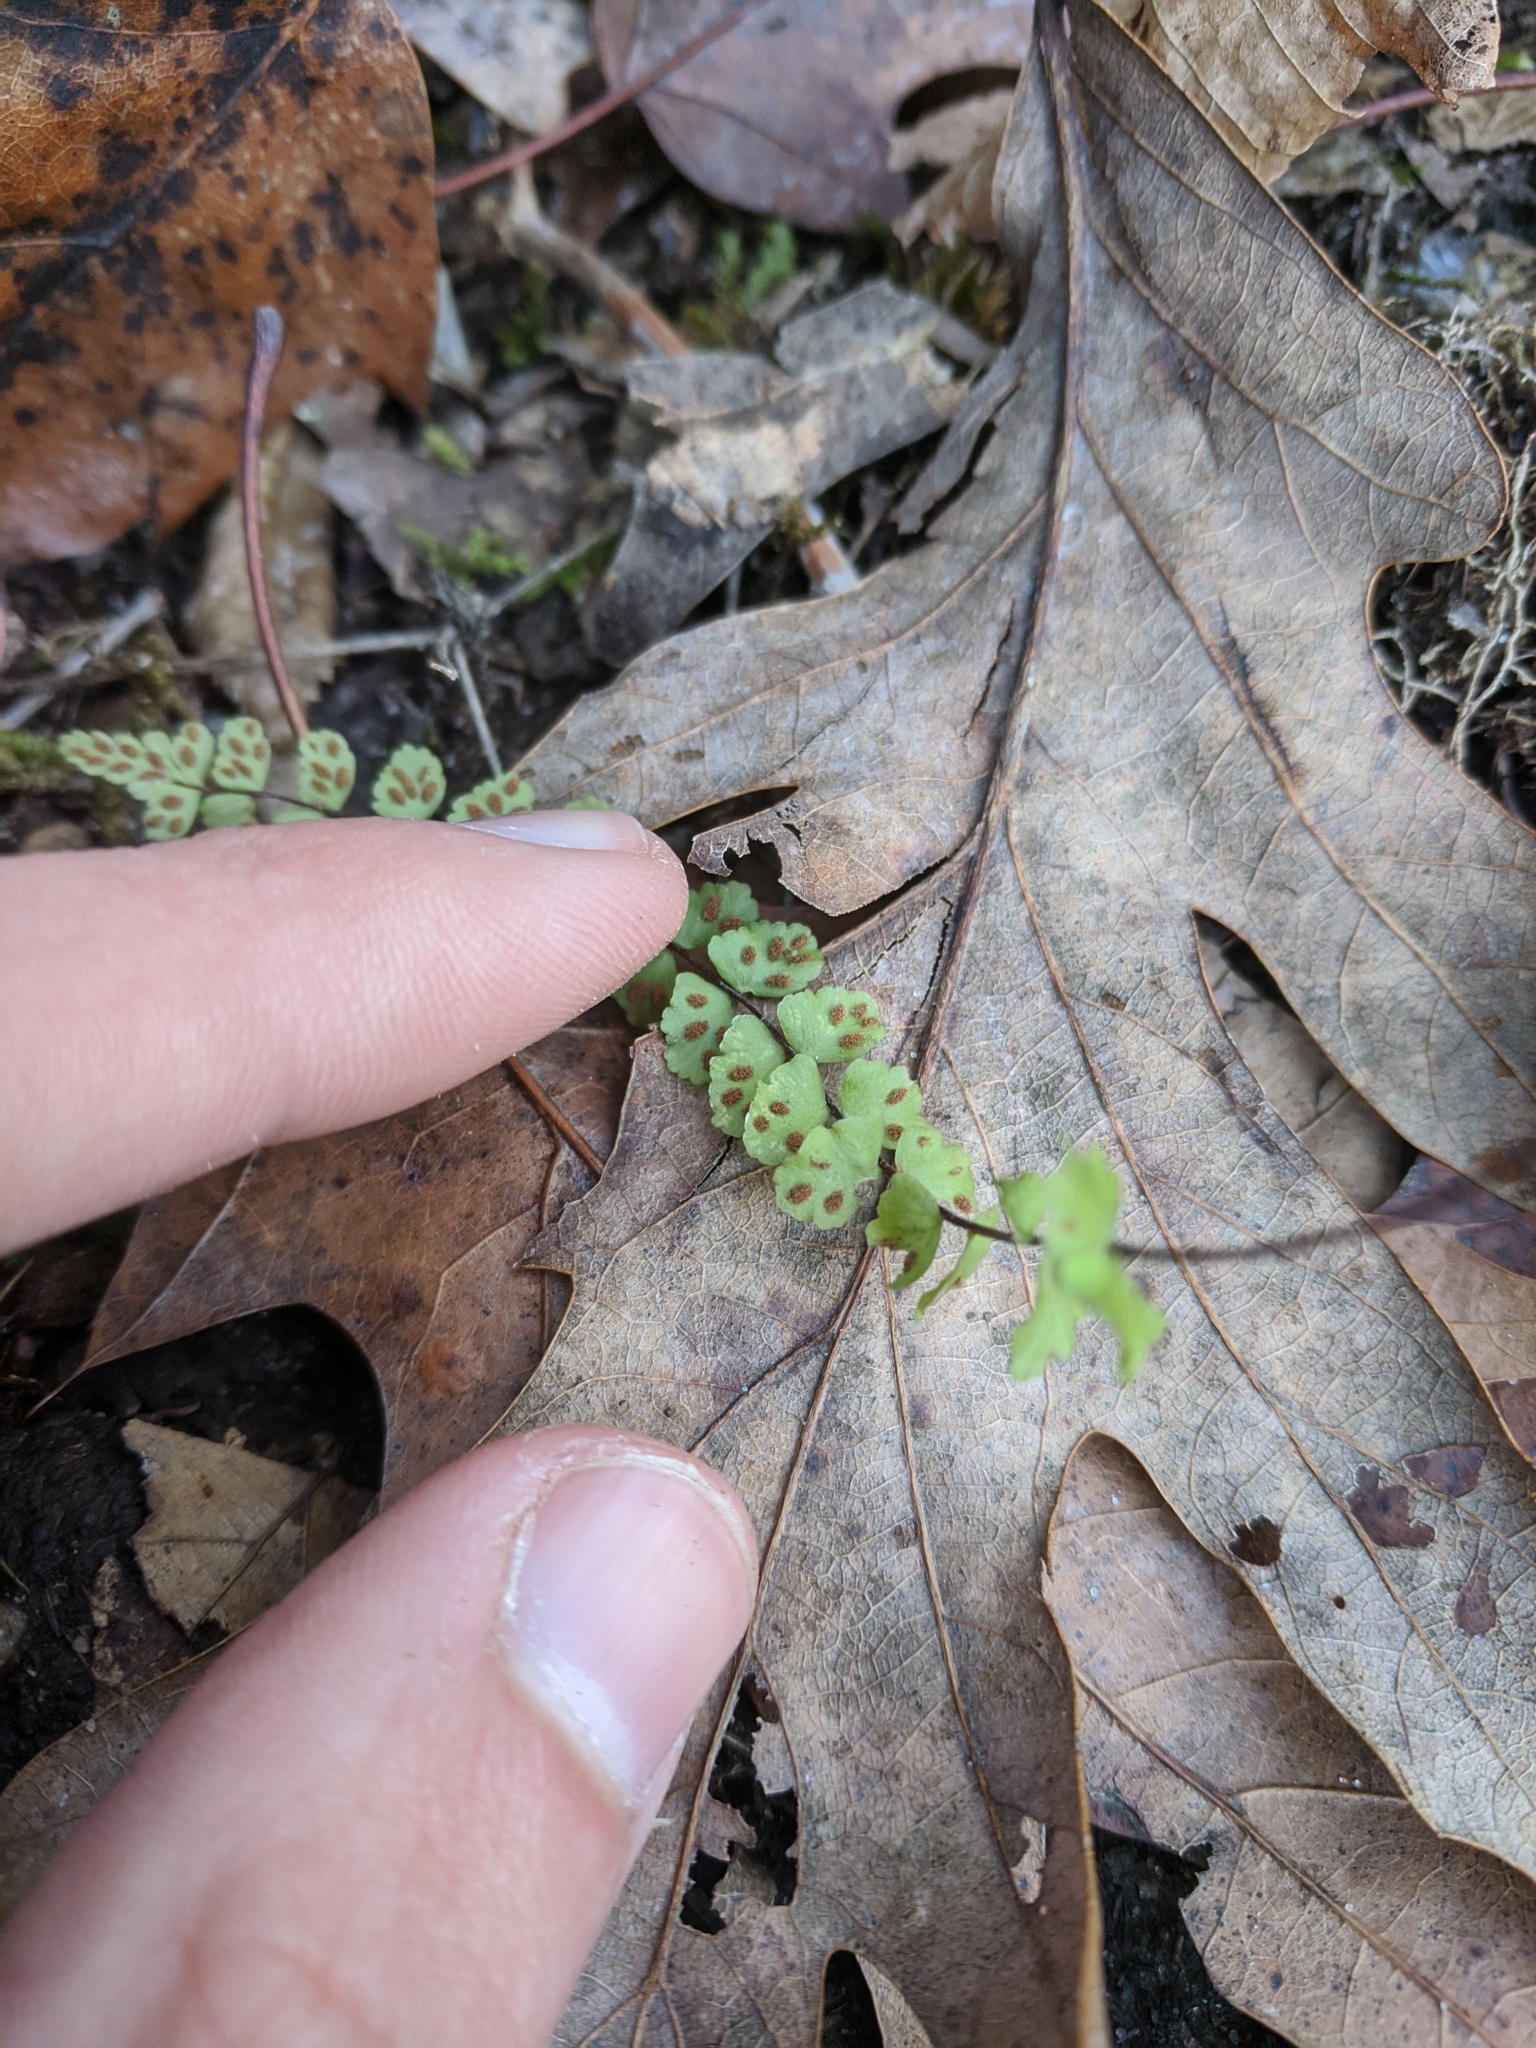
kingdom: Plantae
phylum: Tracheophyta
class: Polypodiopsida
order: Polypodiales
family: Aspleniaceae
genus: Asplenium
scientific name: Asplenium trichomanes
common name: Maidenhair spleenwort
